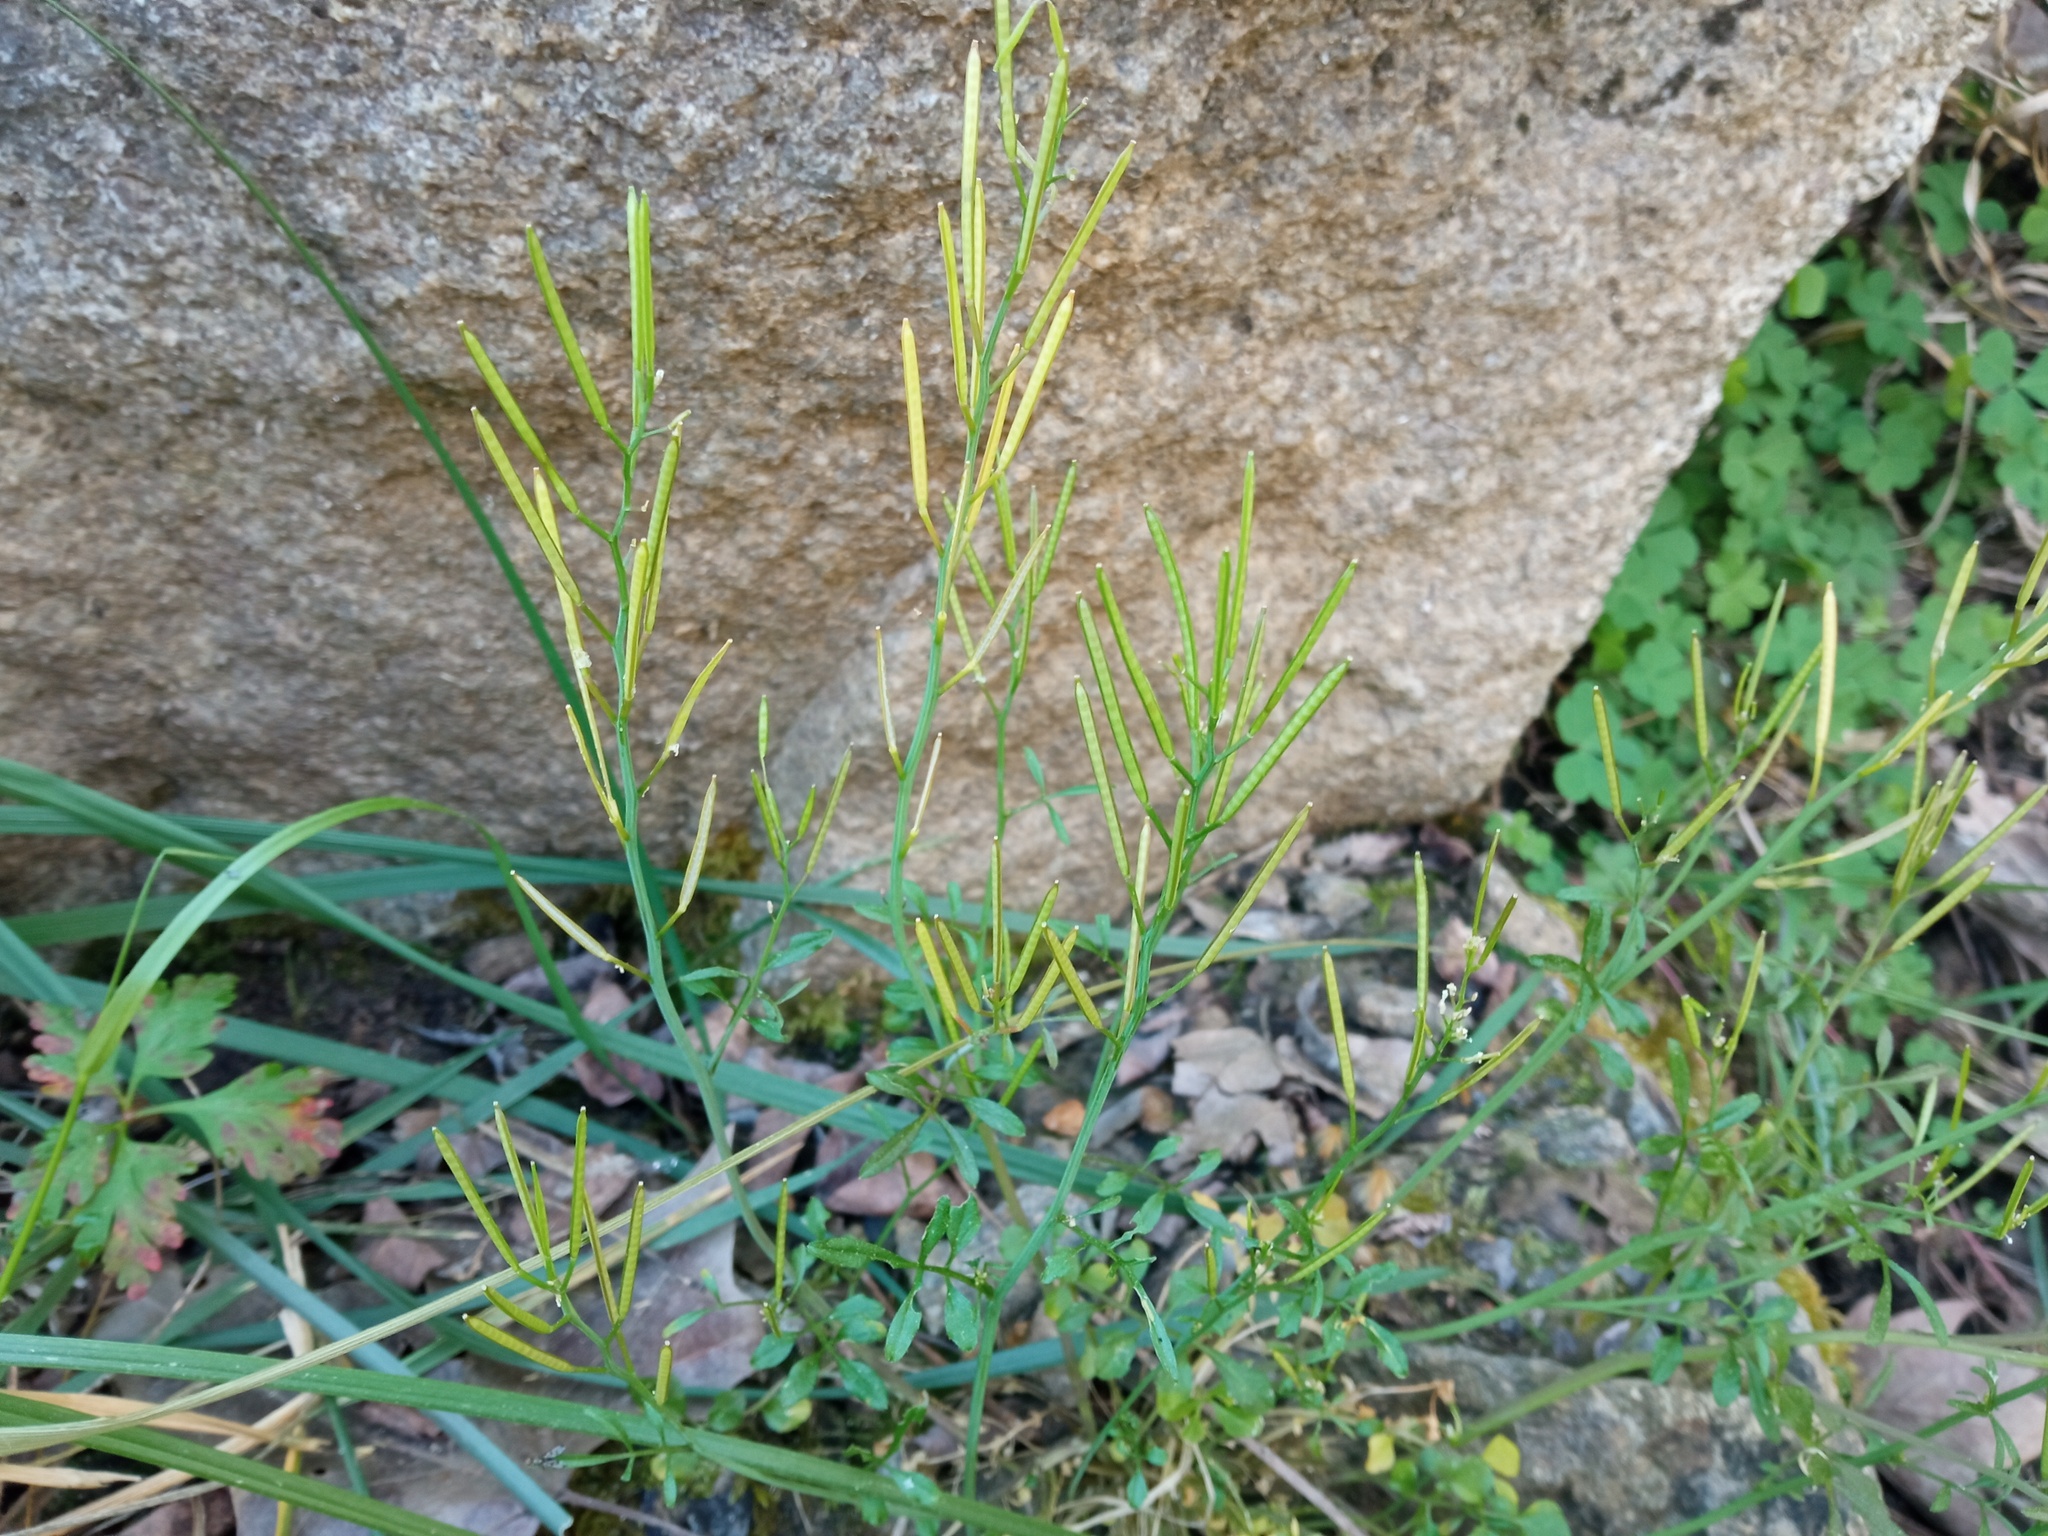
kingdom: Plantae
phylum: Tracheophyta
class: Magnoliopsida
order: Brassicales
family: Brassicaceae
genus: Cardamine
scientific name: Cardamine hirsuta
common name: Hairy bittercress
